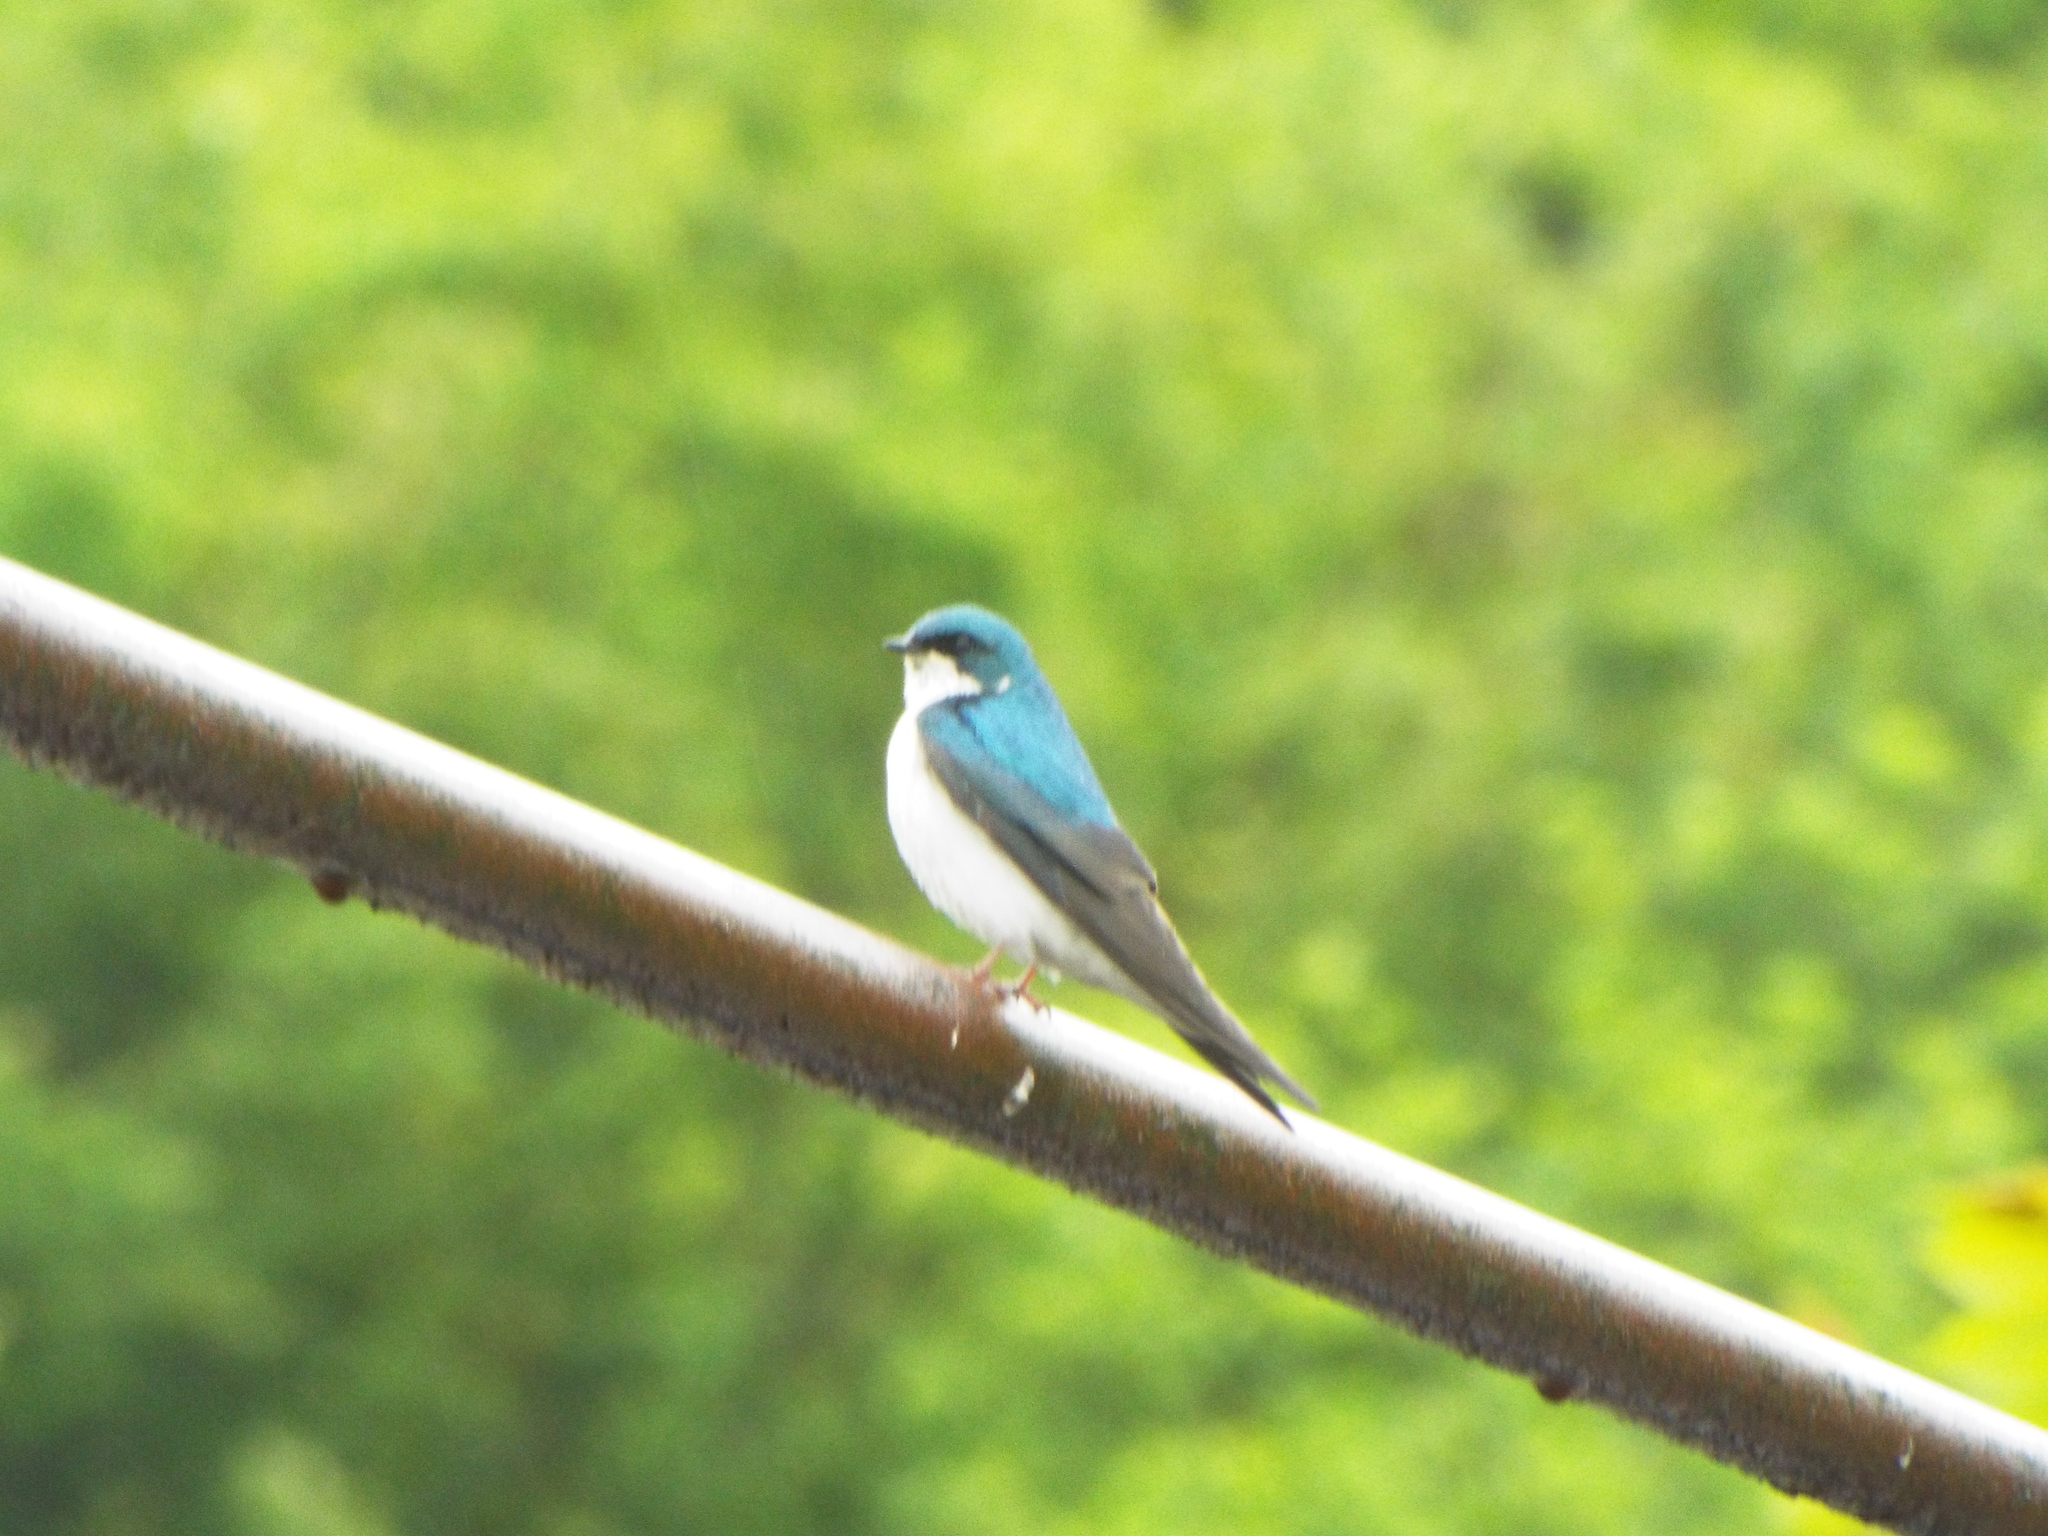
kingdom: Animalia
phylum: Chordata
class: Aves
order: Passeriformes
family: Hirundinidae
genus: Tachycineta
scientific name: Tachycineta bicolor
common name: Tree swallow
